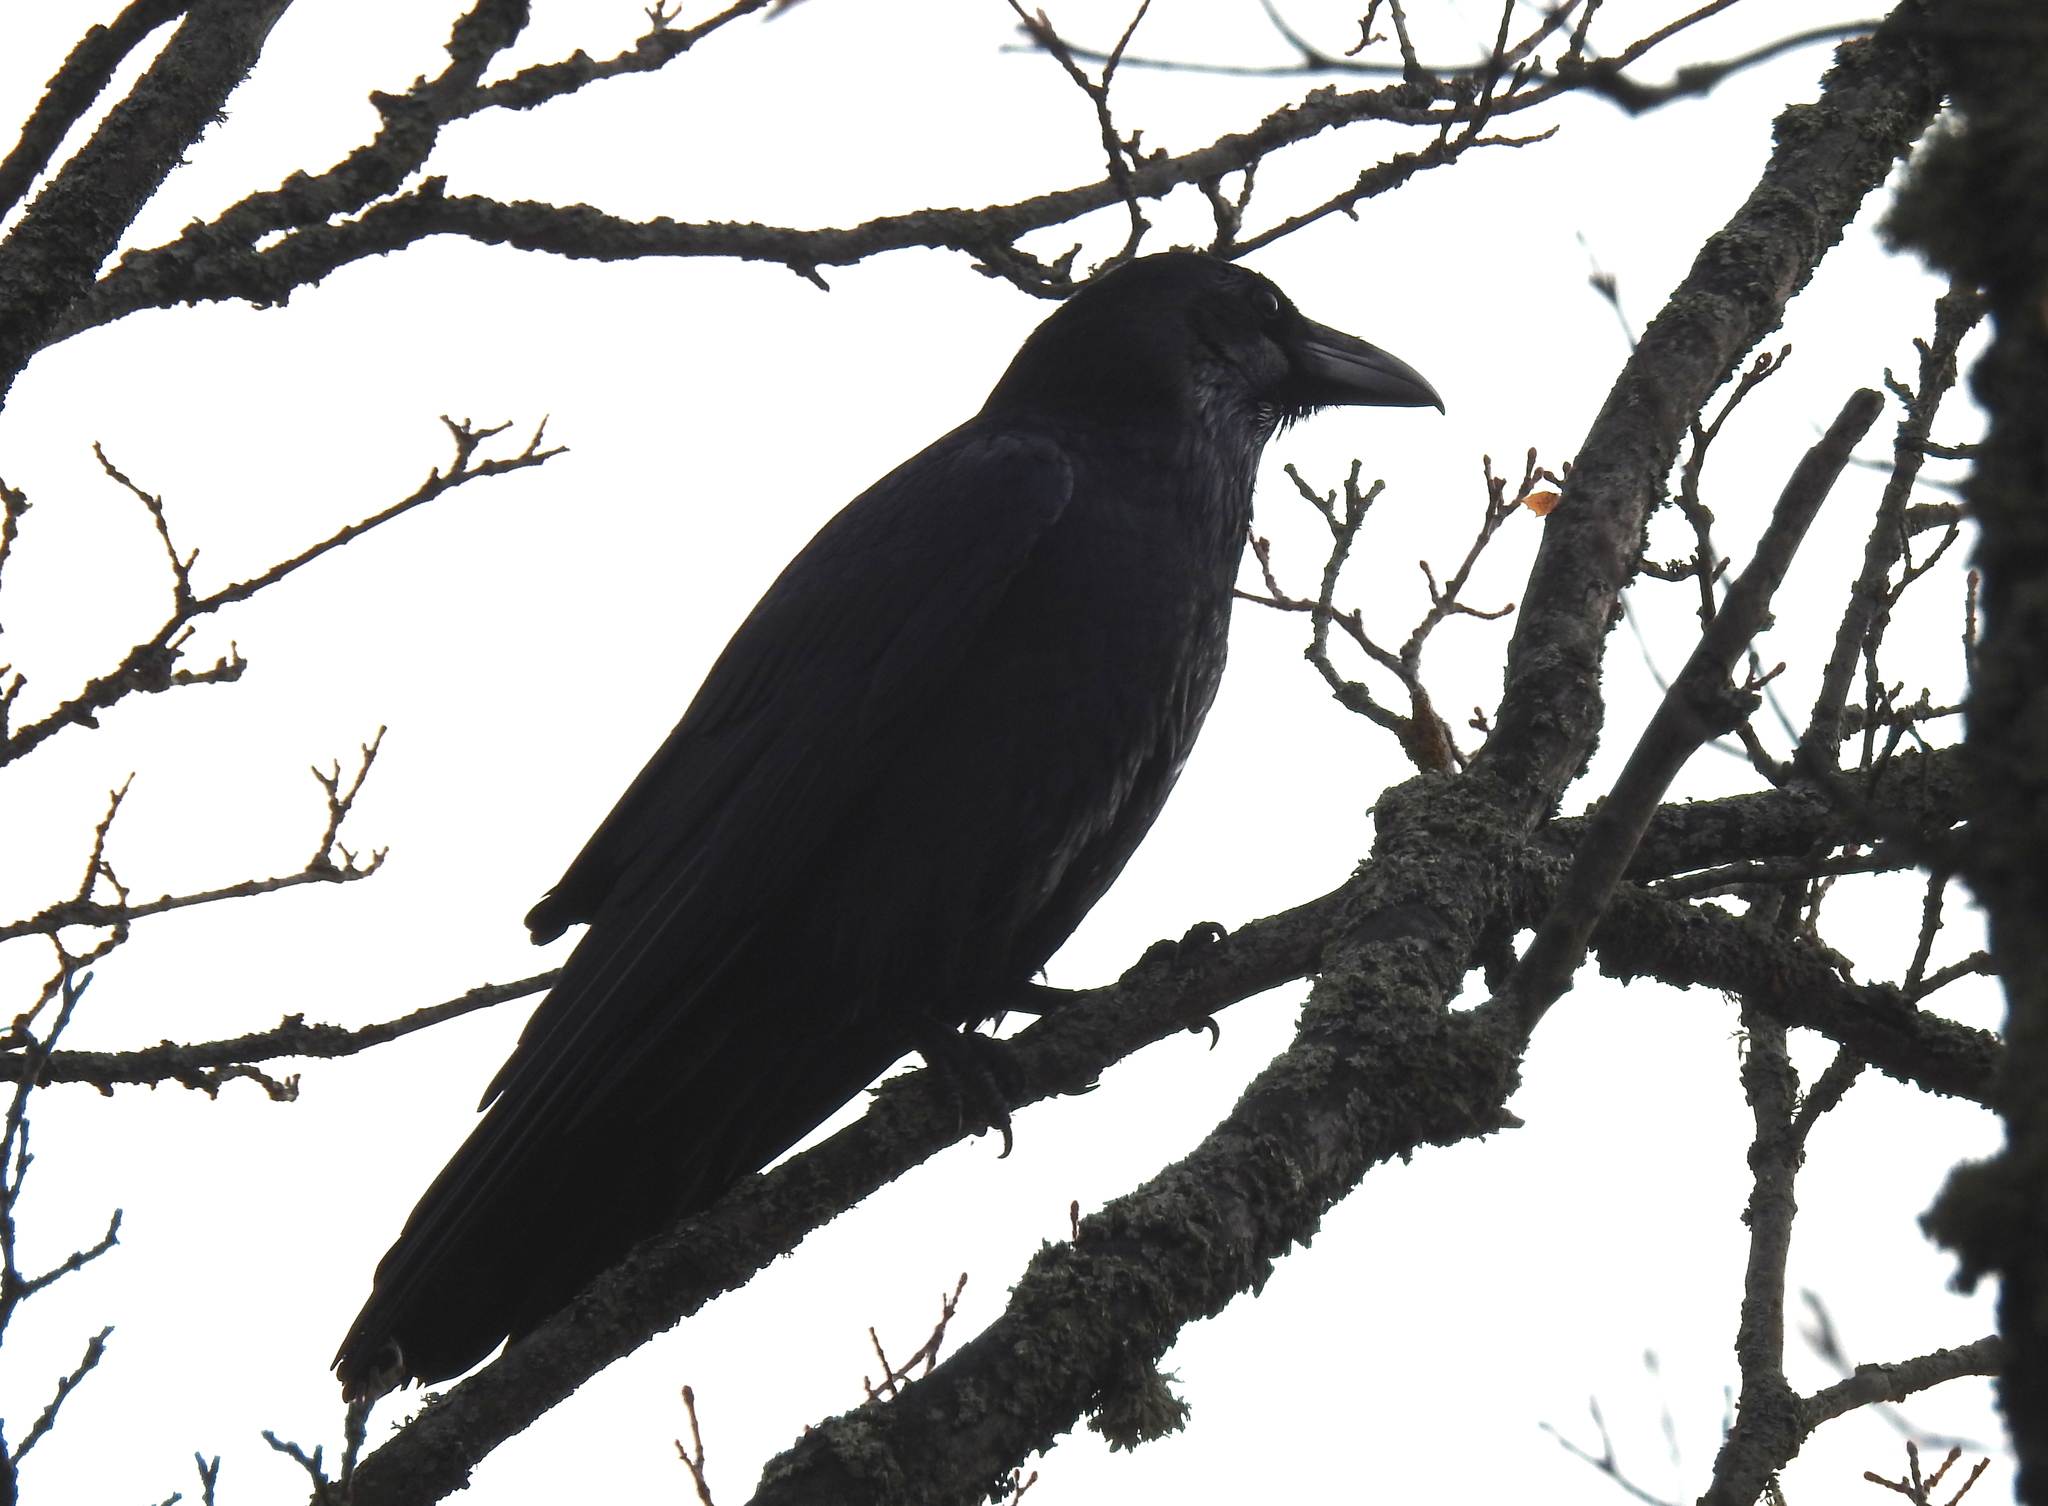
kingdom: Animalia
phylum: Chordata
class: Aves
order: Passeriformes
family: Corvidae
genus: Corvus
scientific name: Corvus corax
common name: Common raven
